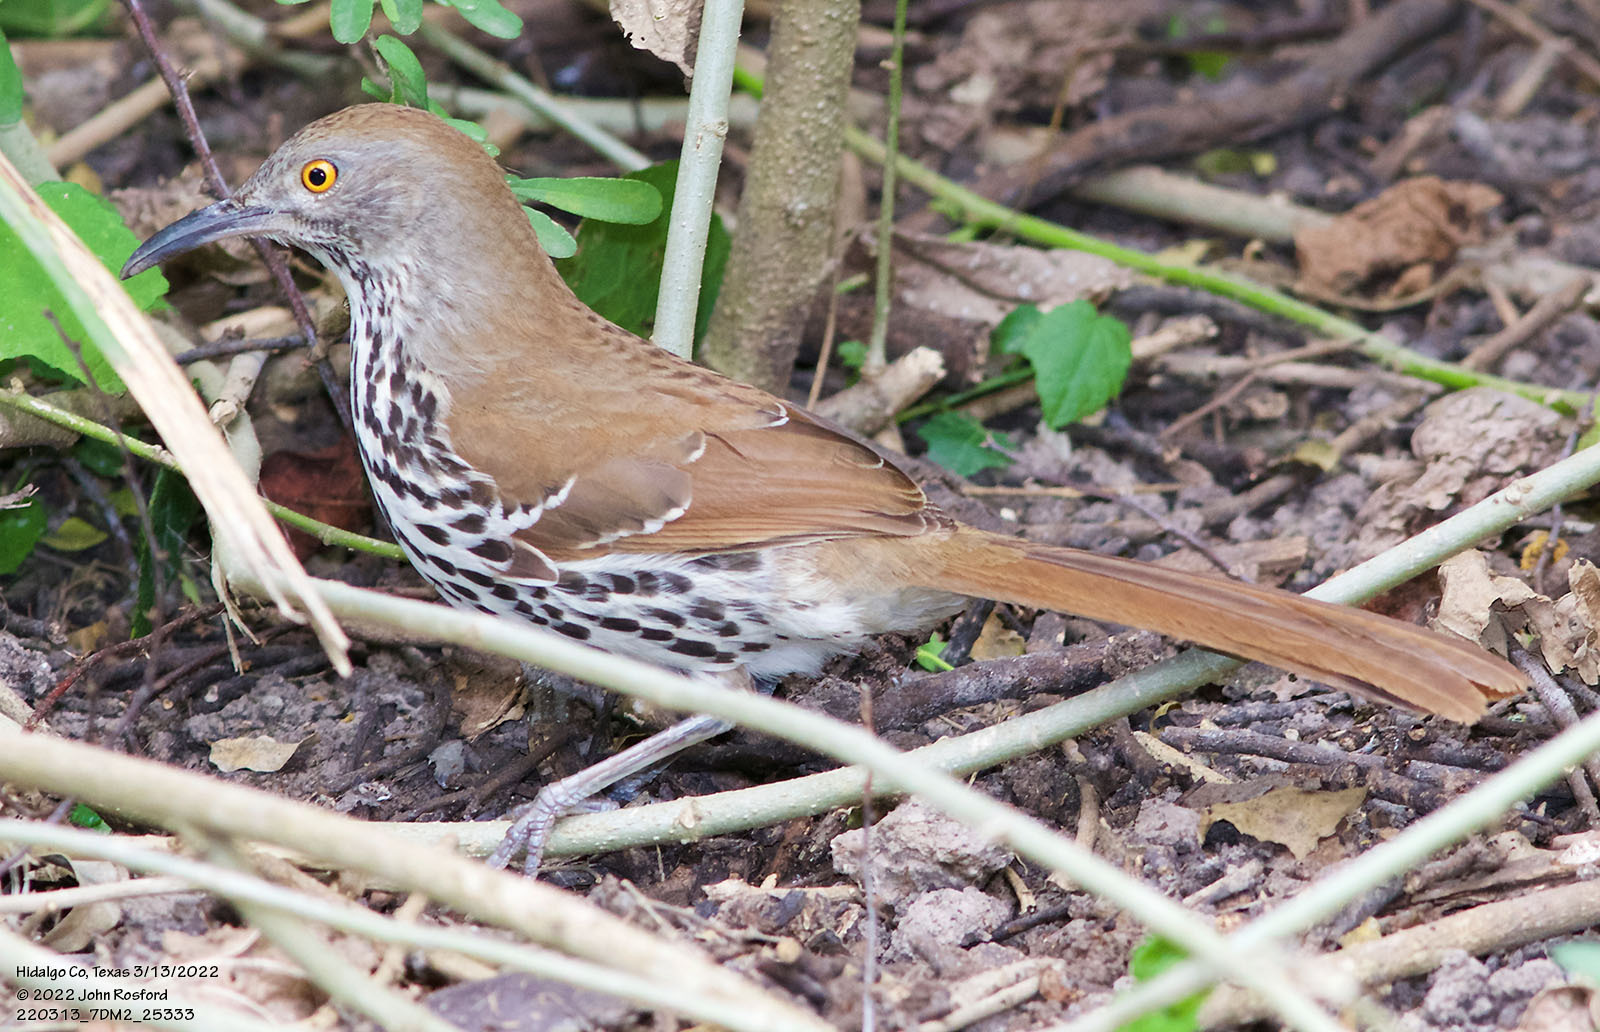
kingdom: Animalia
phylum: Chordata
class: Aves
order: Passeriformes
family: Mimidae
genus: Toxostoma
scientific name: Toxostoma longirostre
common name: Long-billed thrasher
